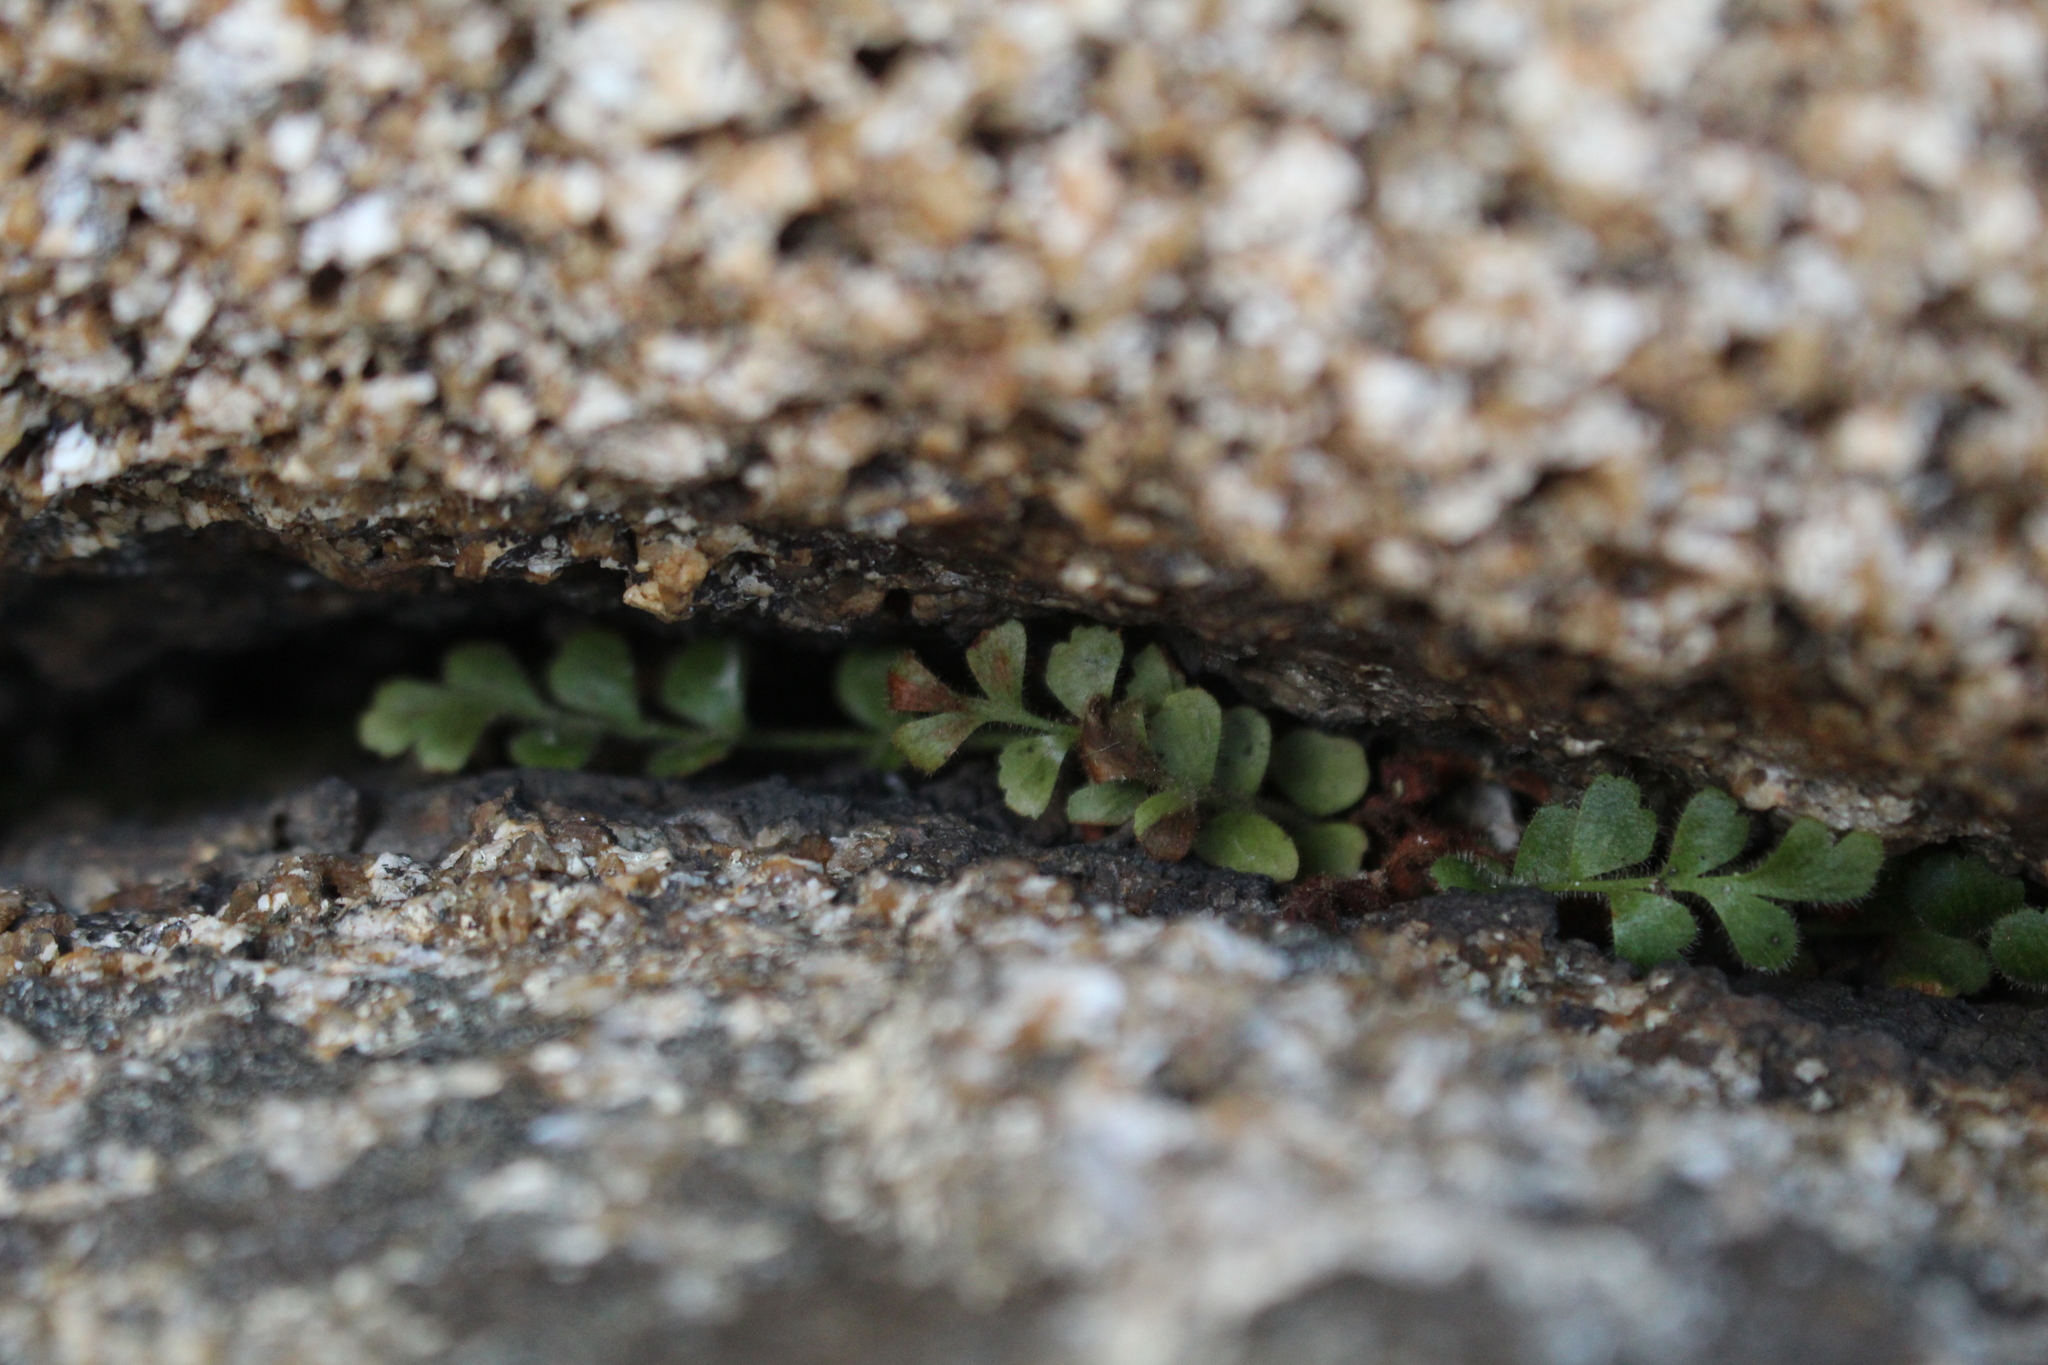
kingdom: Plantae
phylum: Tracheophyta
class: Polypodiopsida
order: Polypodiales
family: Aspleniaceae
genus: Asplenium
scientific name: Asplenium subglandulosum
